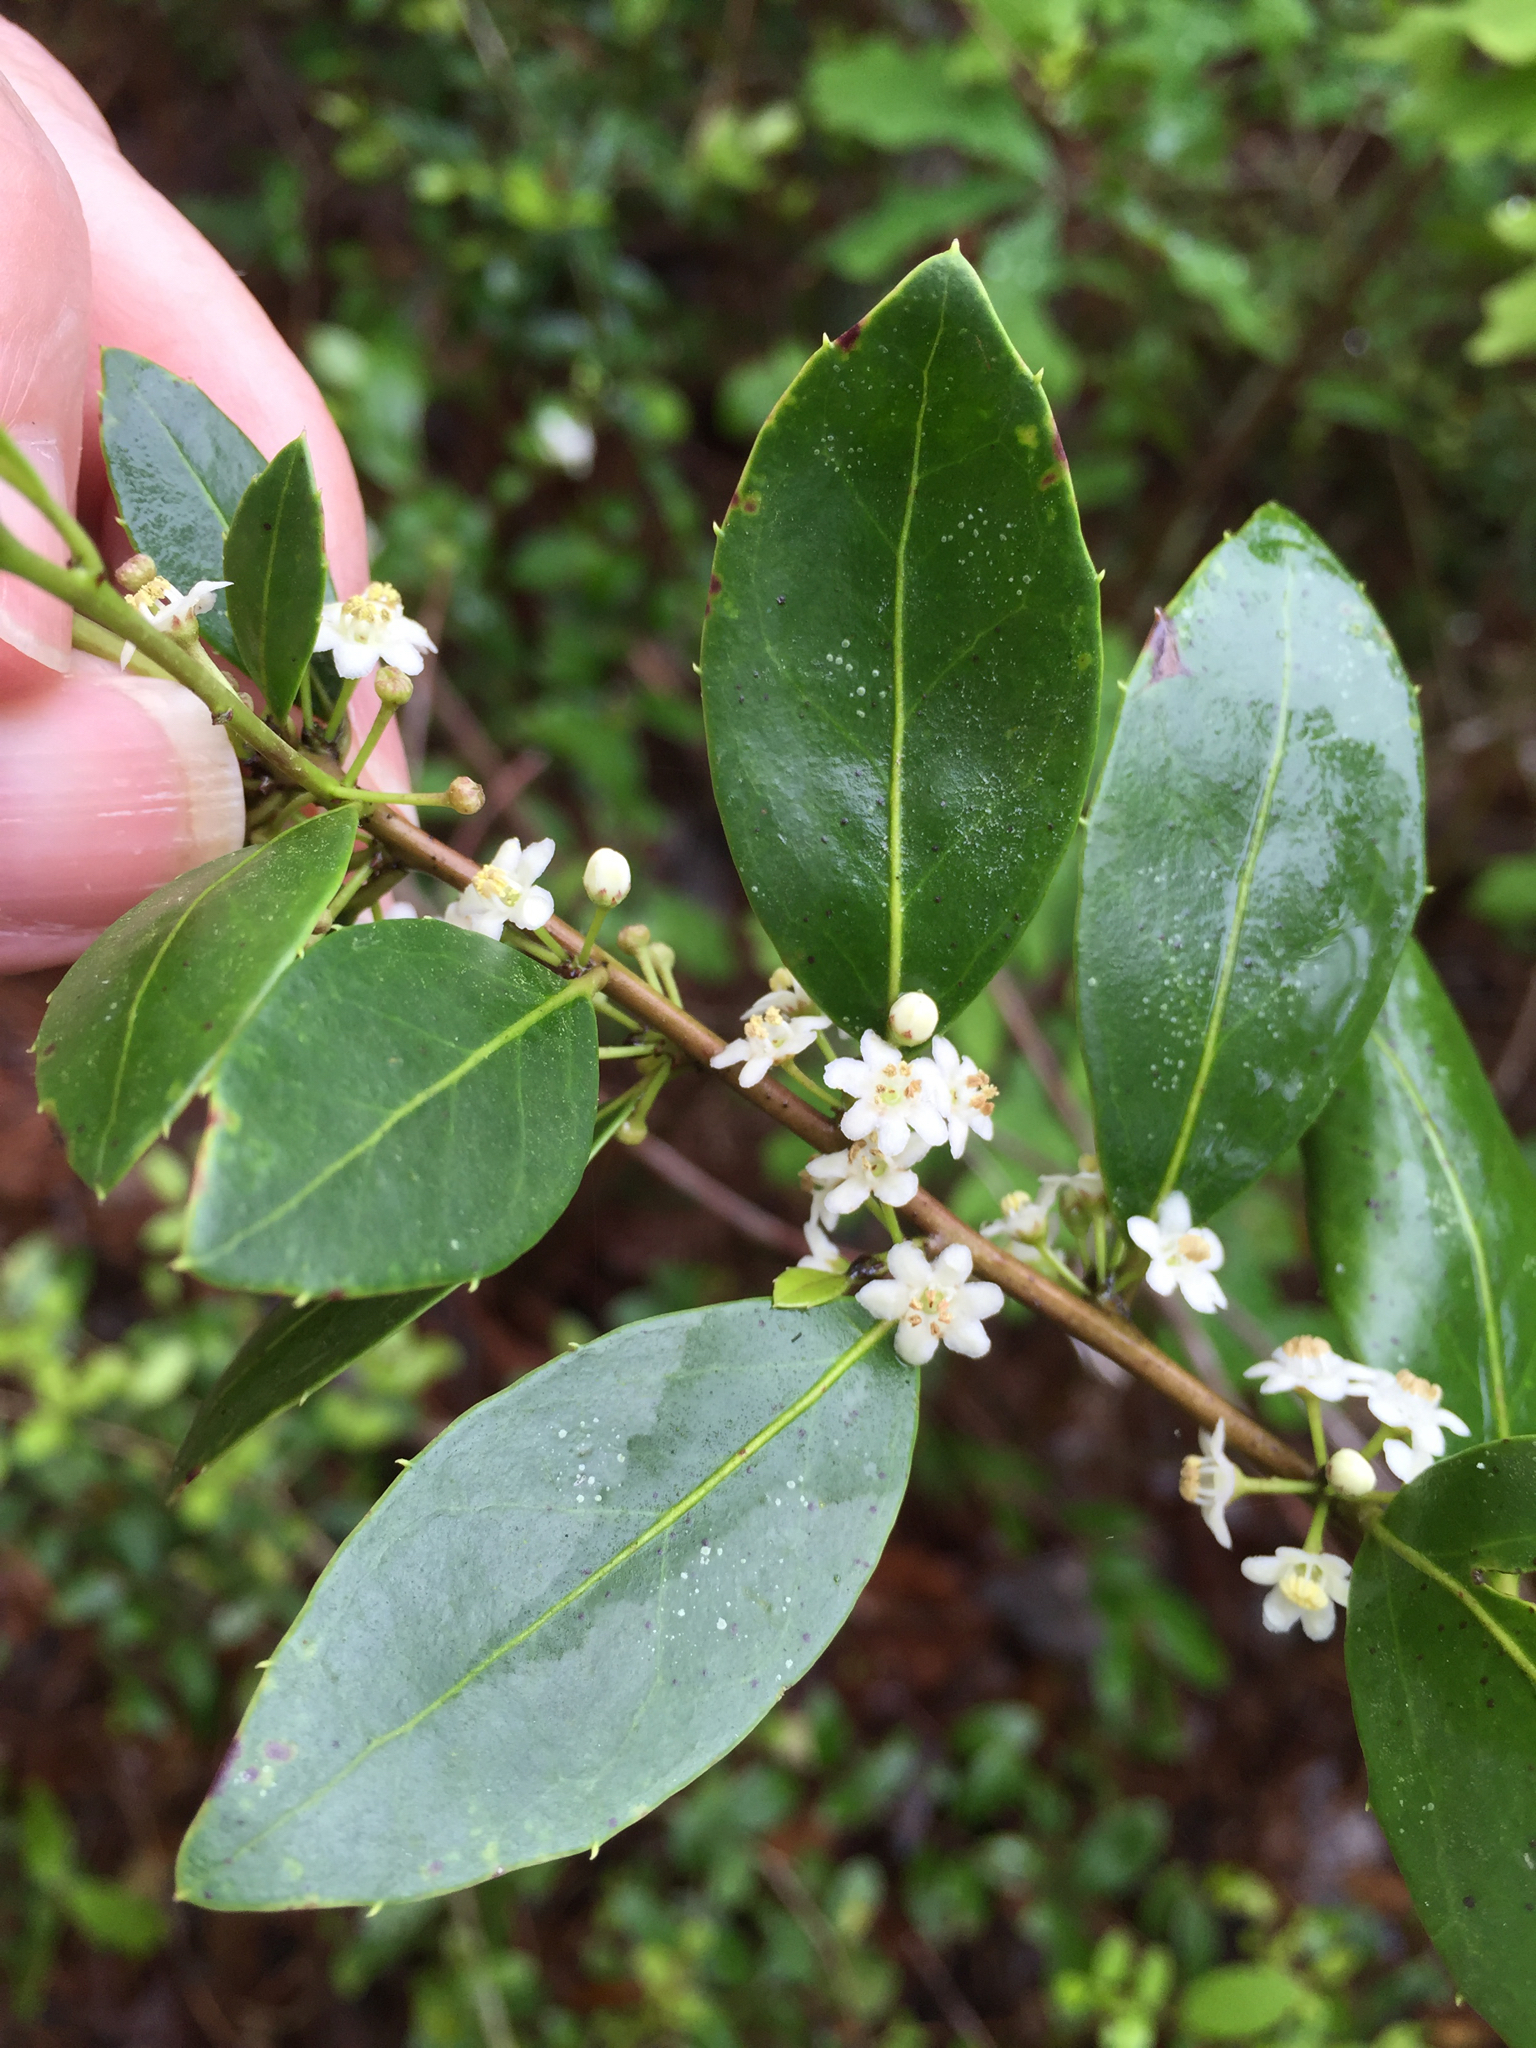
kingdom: Plantae
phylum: Tracheophyta
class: Magnoliopsida
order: Aquifoliales
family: Aquifoliaceae
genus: Ilex
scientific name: Ilex coriacea
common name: Sweet gallberry
